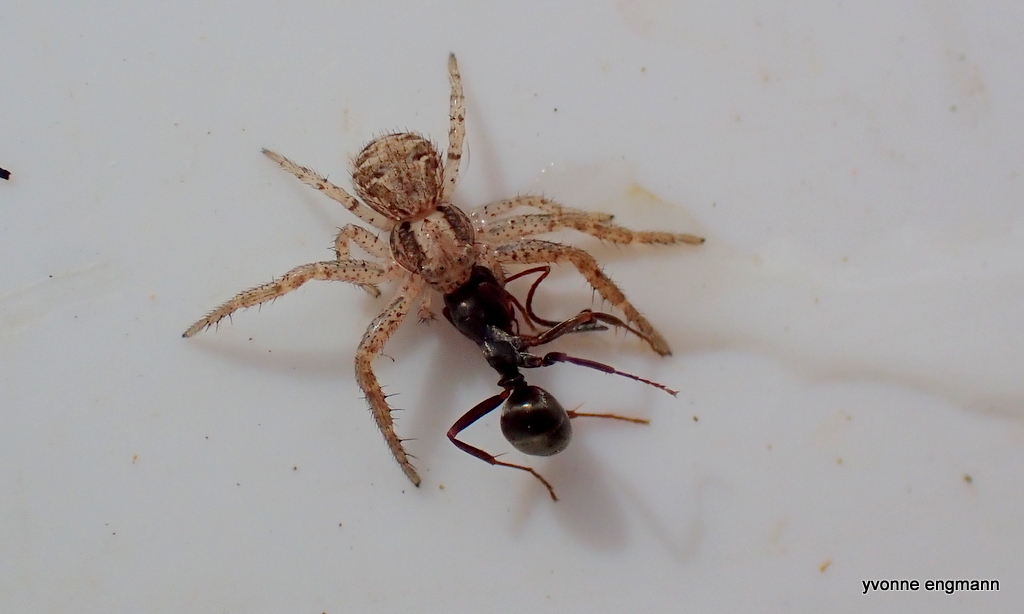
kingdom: Animalia
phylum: Arthropoda
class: Arachnida
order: Araneae
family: Thomisidae
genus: Xysticus
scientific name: Xysticus lanio
